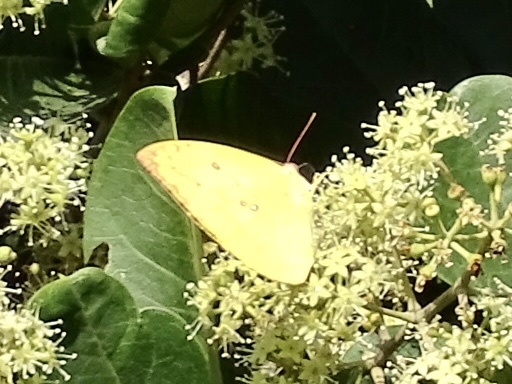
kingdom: Animalia
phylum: Arthropoda
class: Insecta
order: Lepidoptera
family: Pieridae
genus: Catopsilia
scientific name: Catopsilia pomona
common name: Common emigrant
